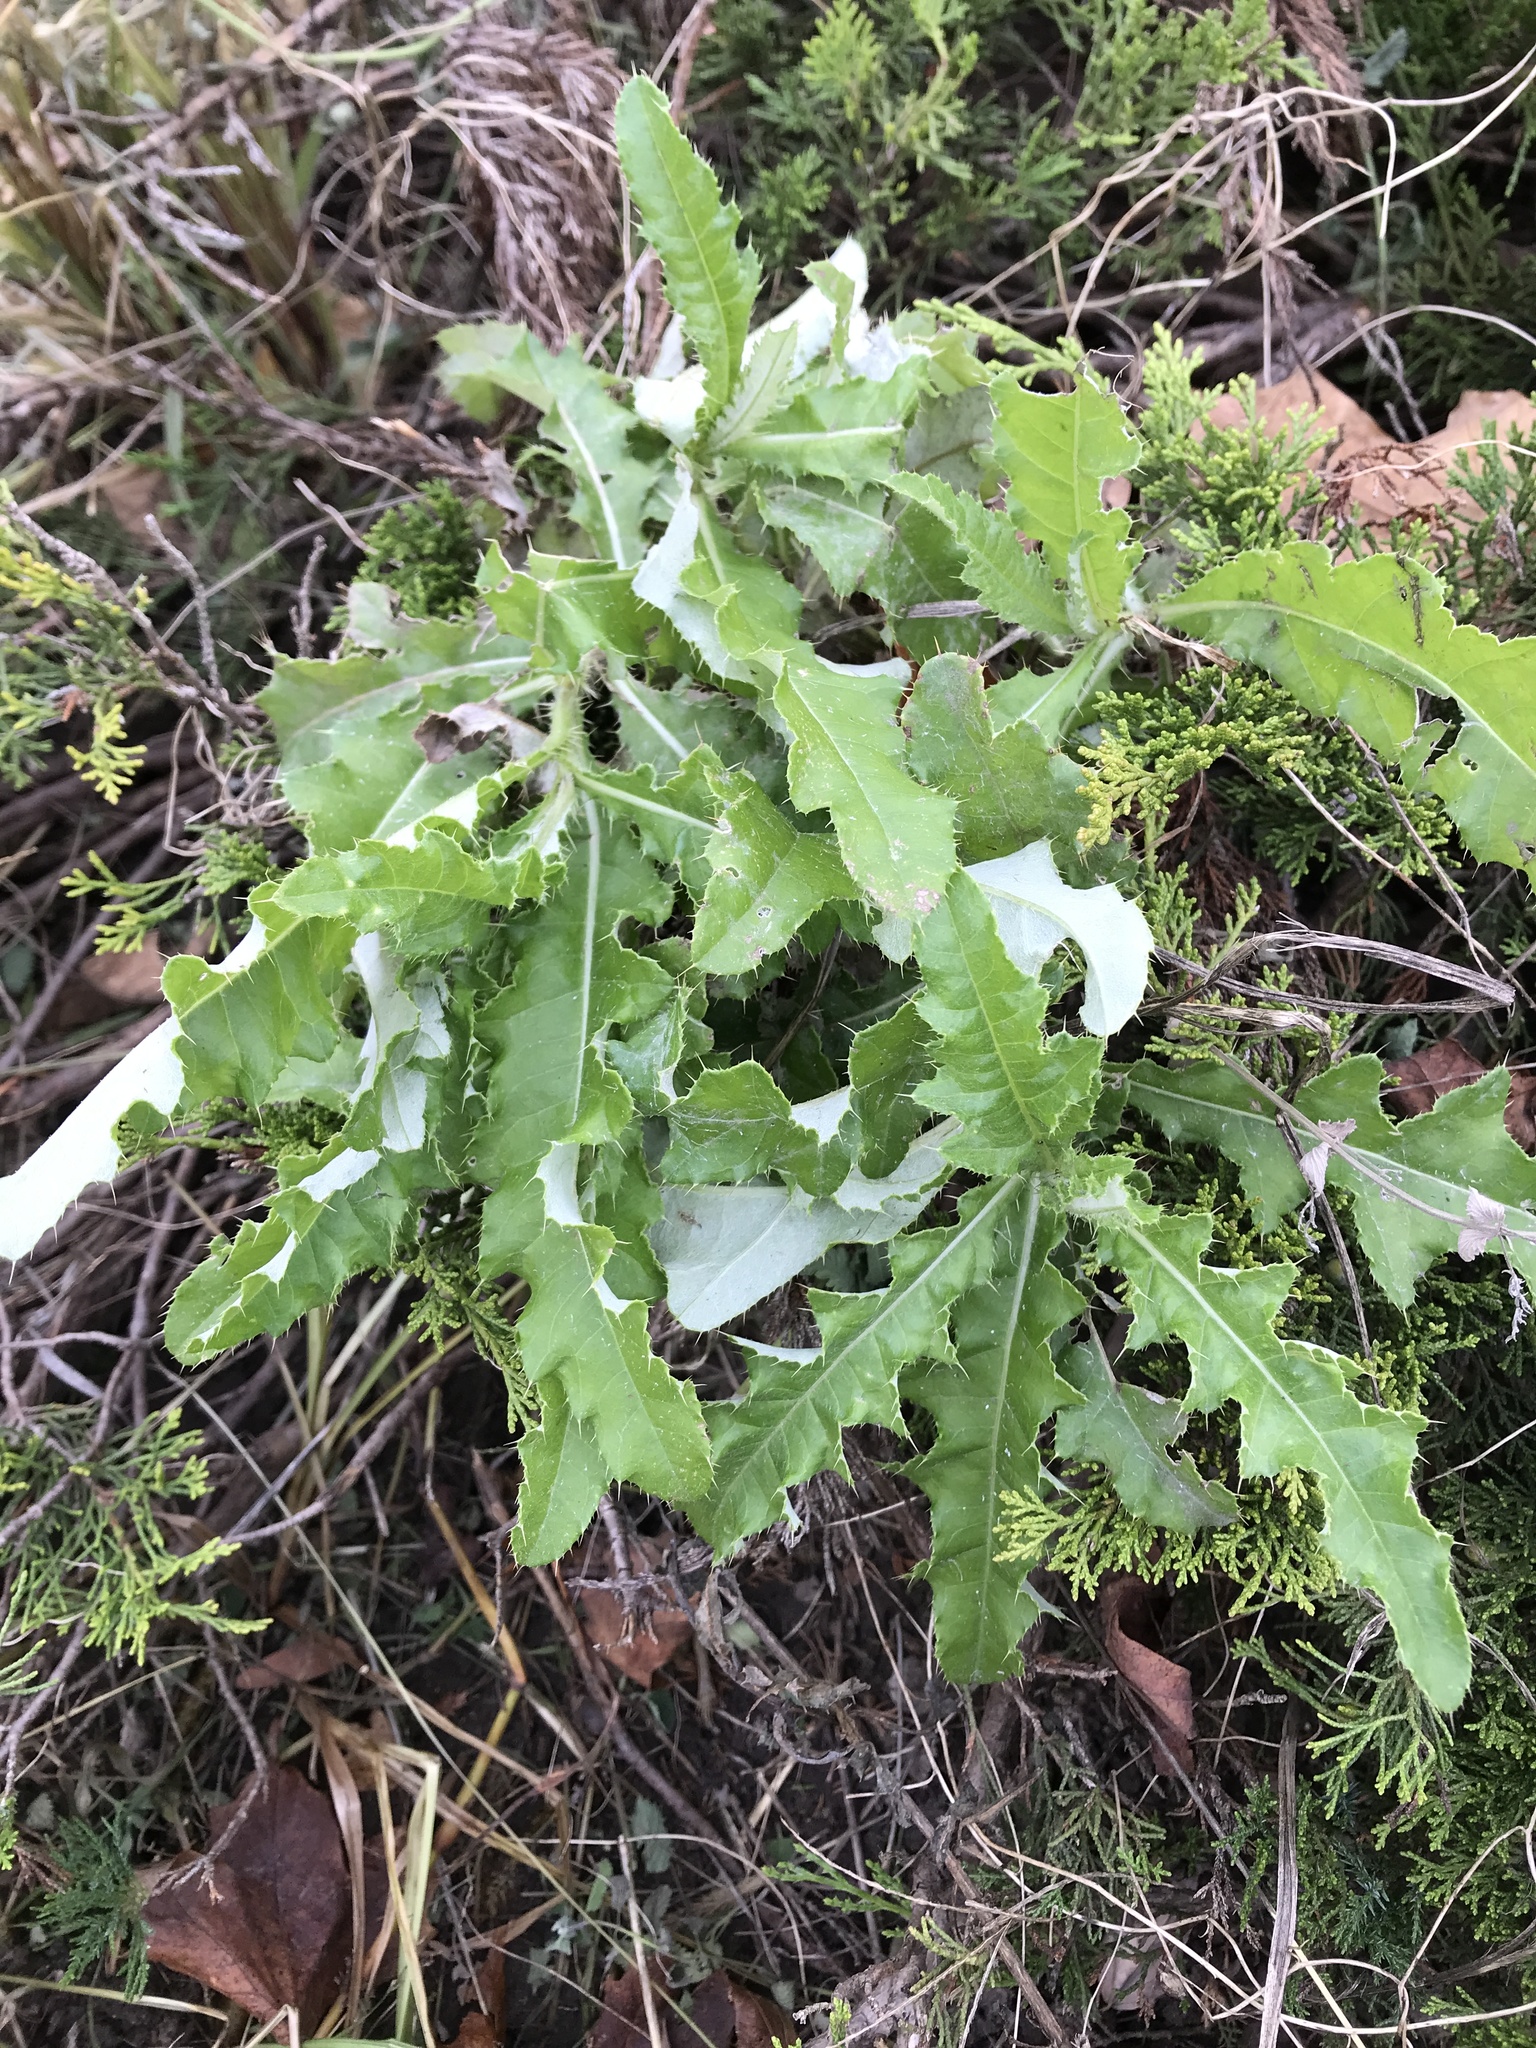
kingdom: Plantae
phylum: Tracheophyta
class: Magnoliopsida
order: Asterales
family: Asteraceae
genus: Cirsium
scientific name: Cirsium arvense
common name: Creeping thistle
